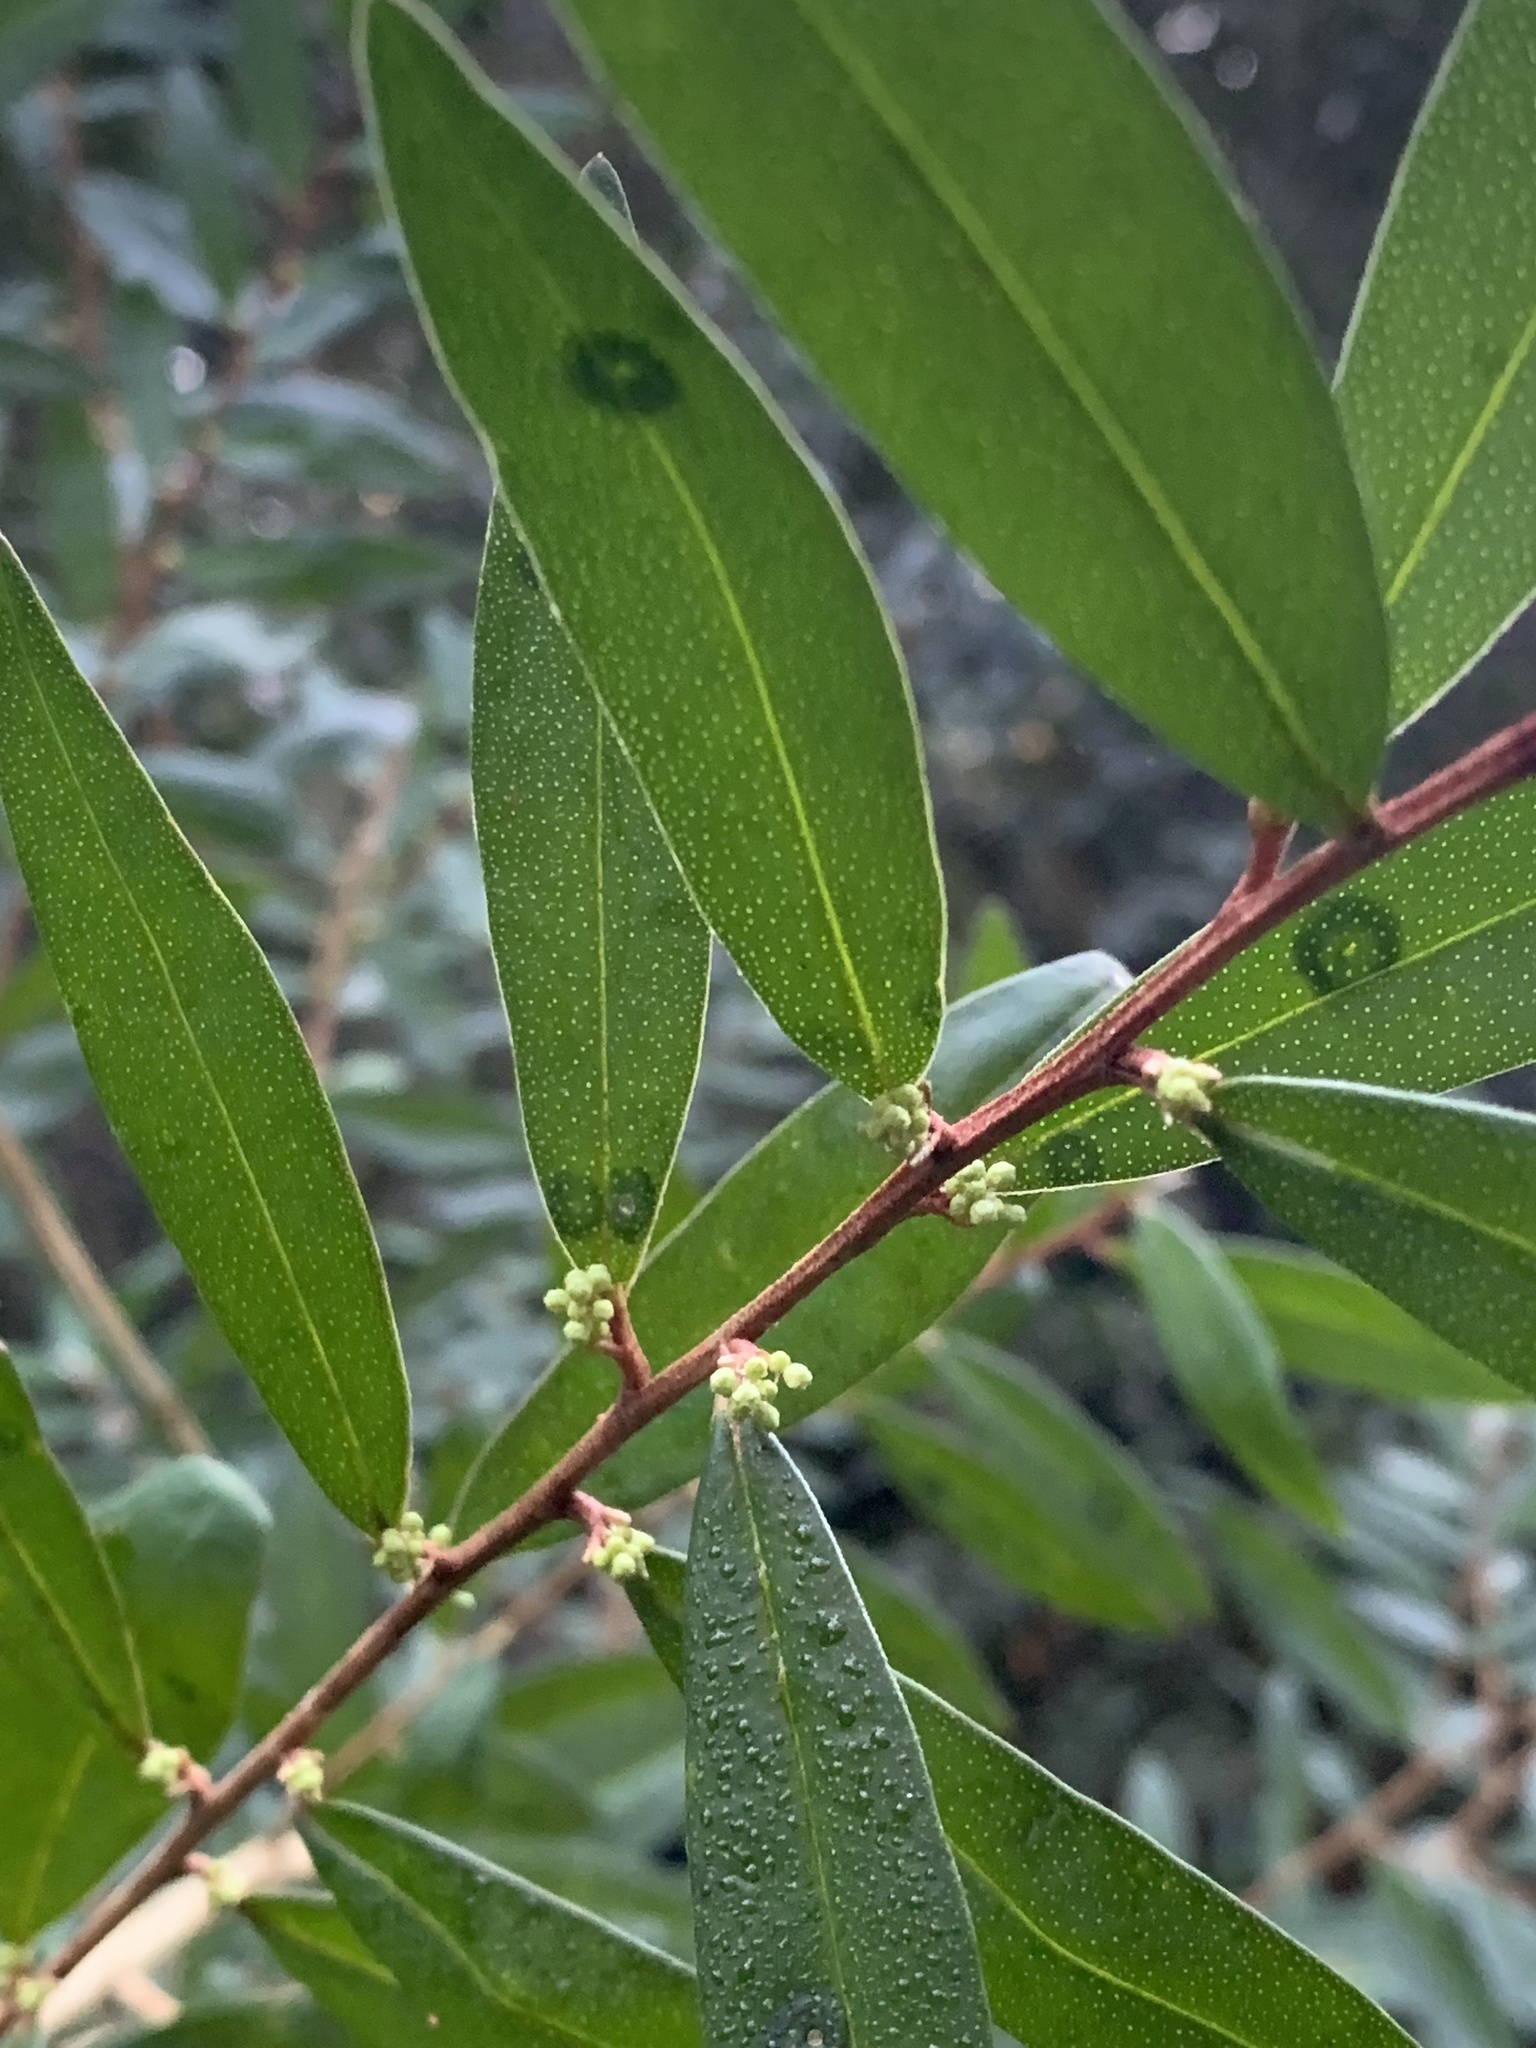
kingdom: Plantae
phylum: Tracheophyta
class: Magnoliopsida
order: Sapindales
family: Rutaceae
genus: Nematolepis
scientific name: Nematolepis squamea
